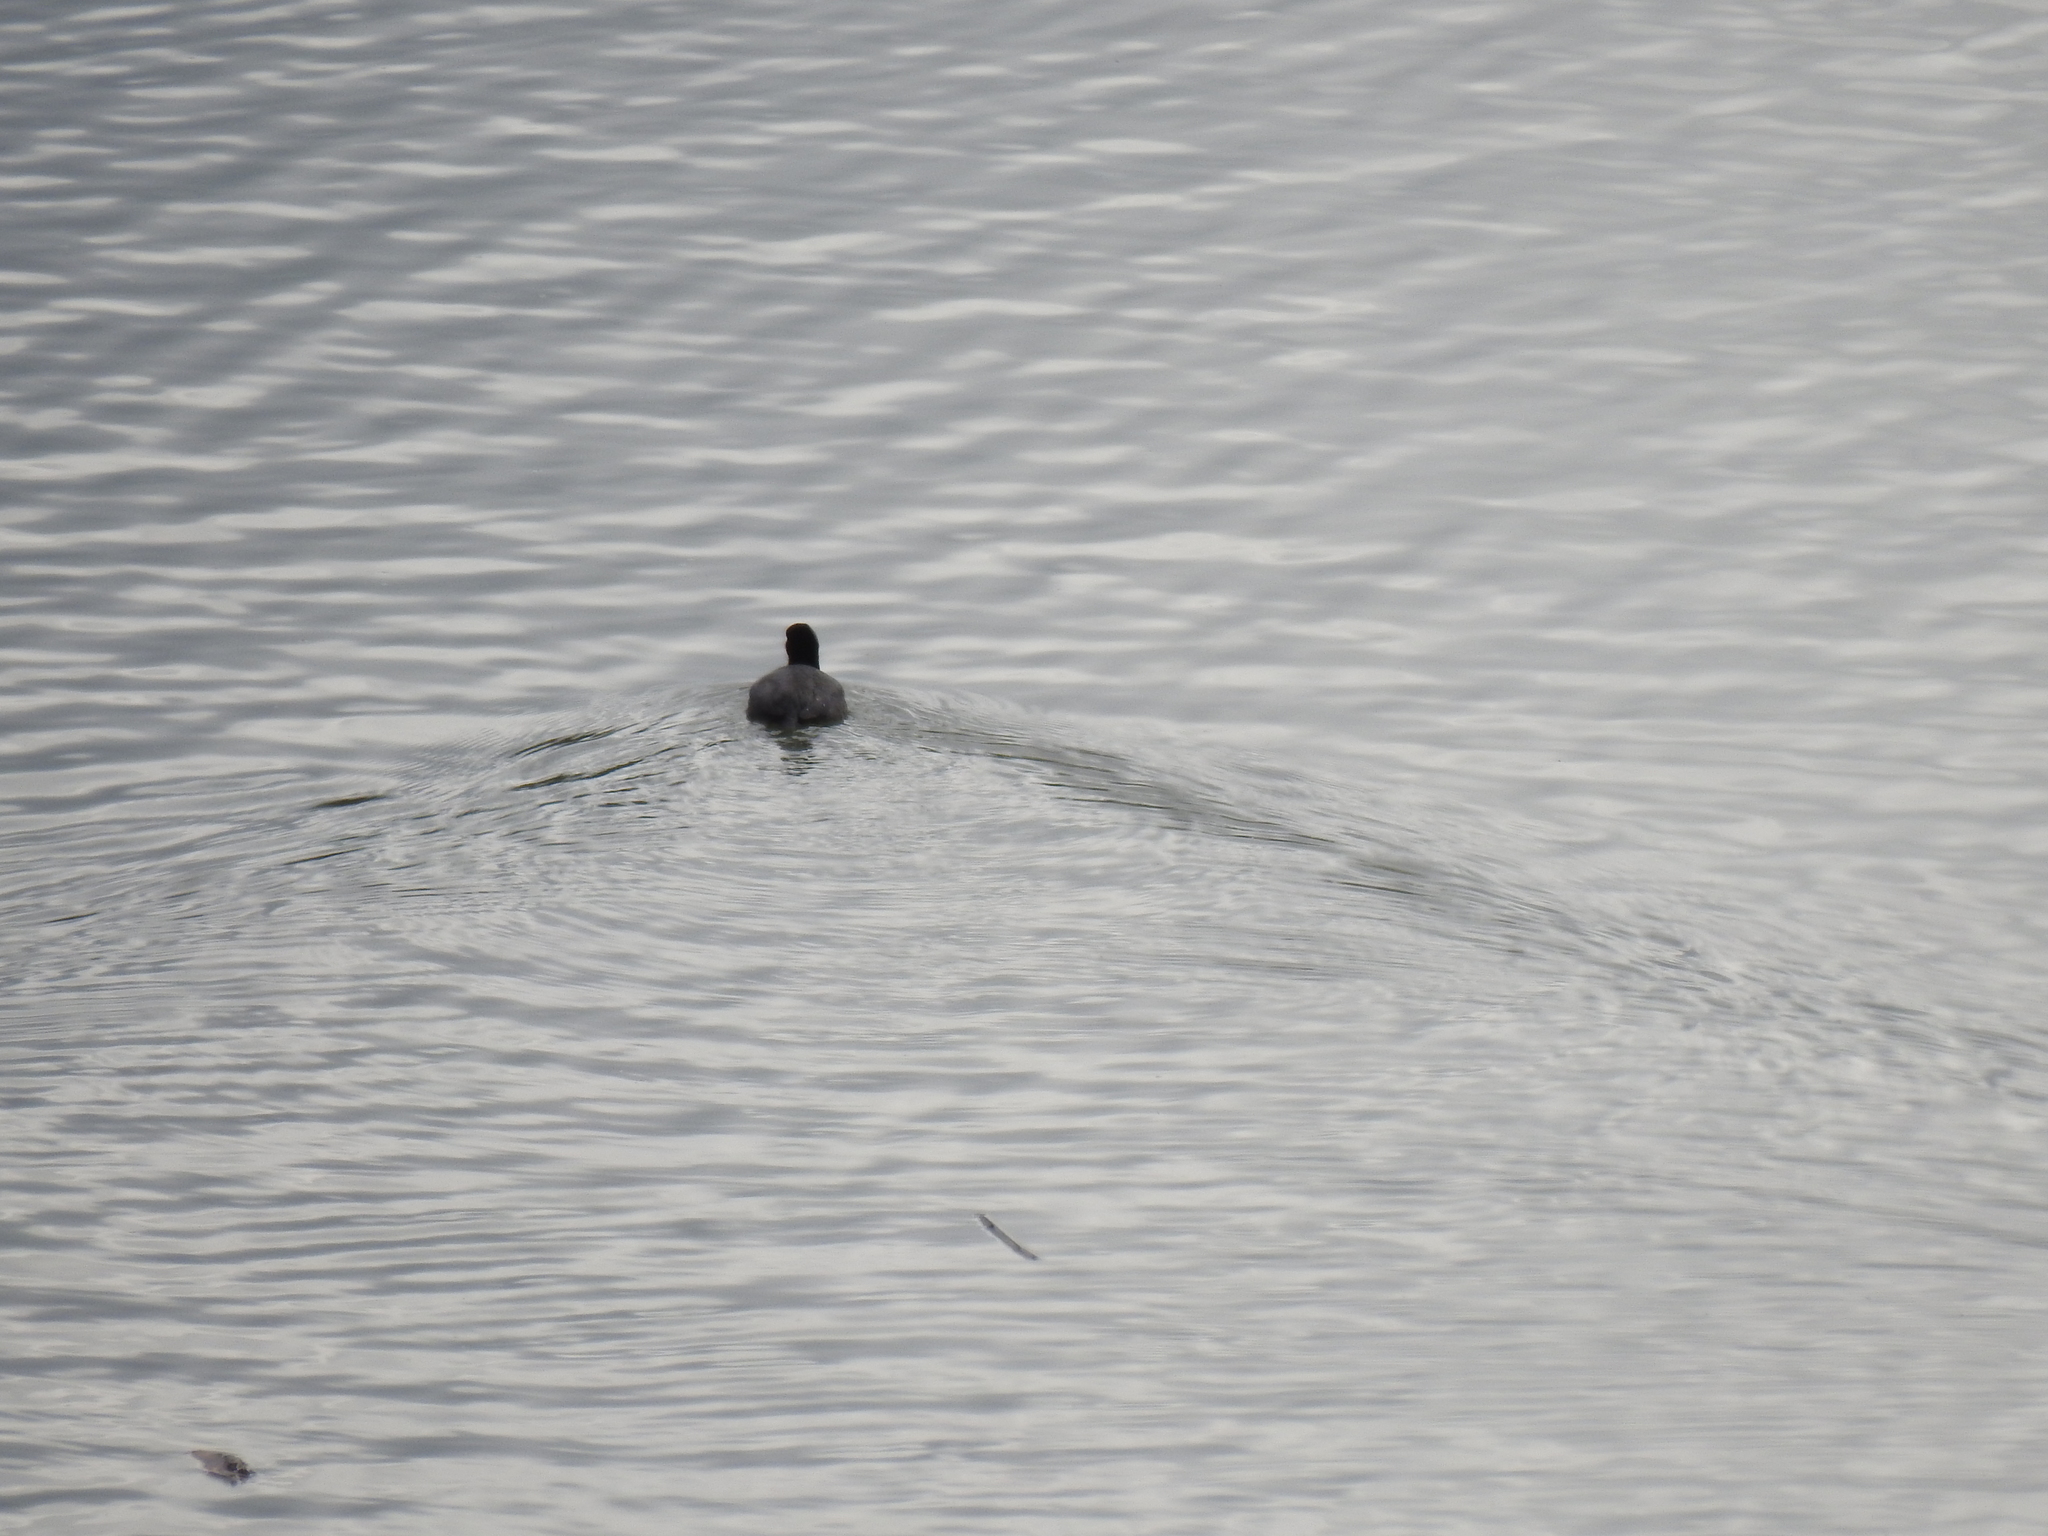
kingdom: Animalia
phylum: Chordata
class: Aves
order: Gruiformes
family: Rallidae
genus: Fulica
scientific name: Fulica americana
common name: American coot
